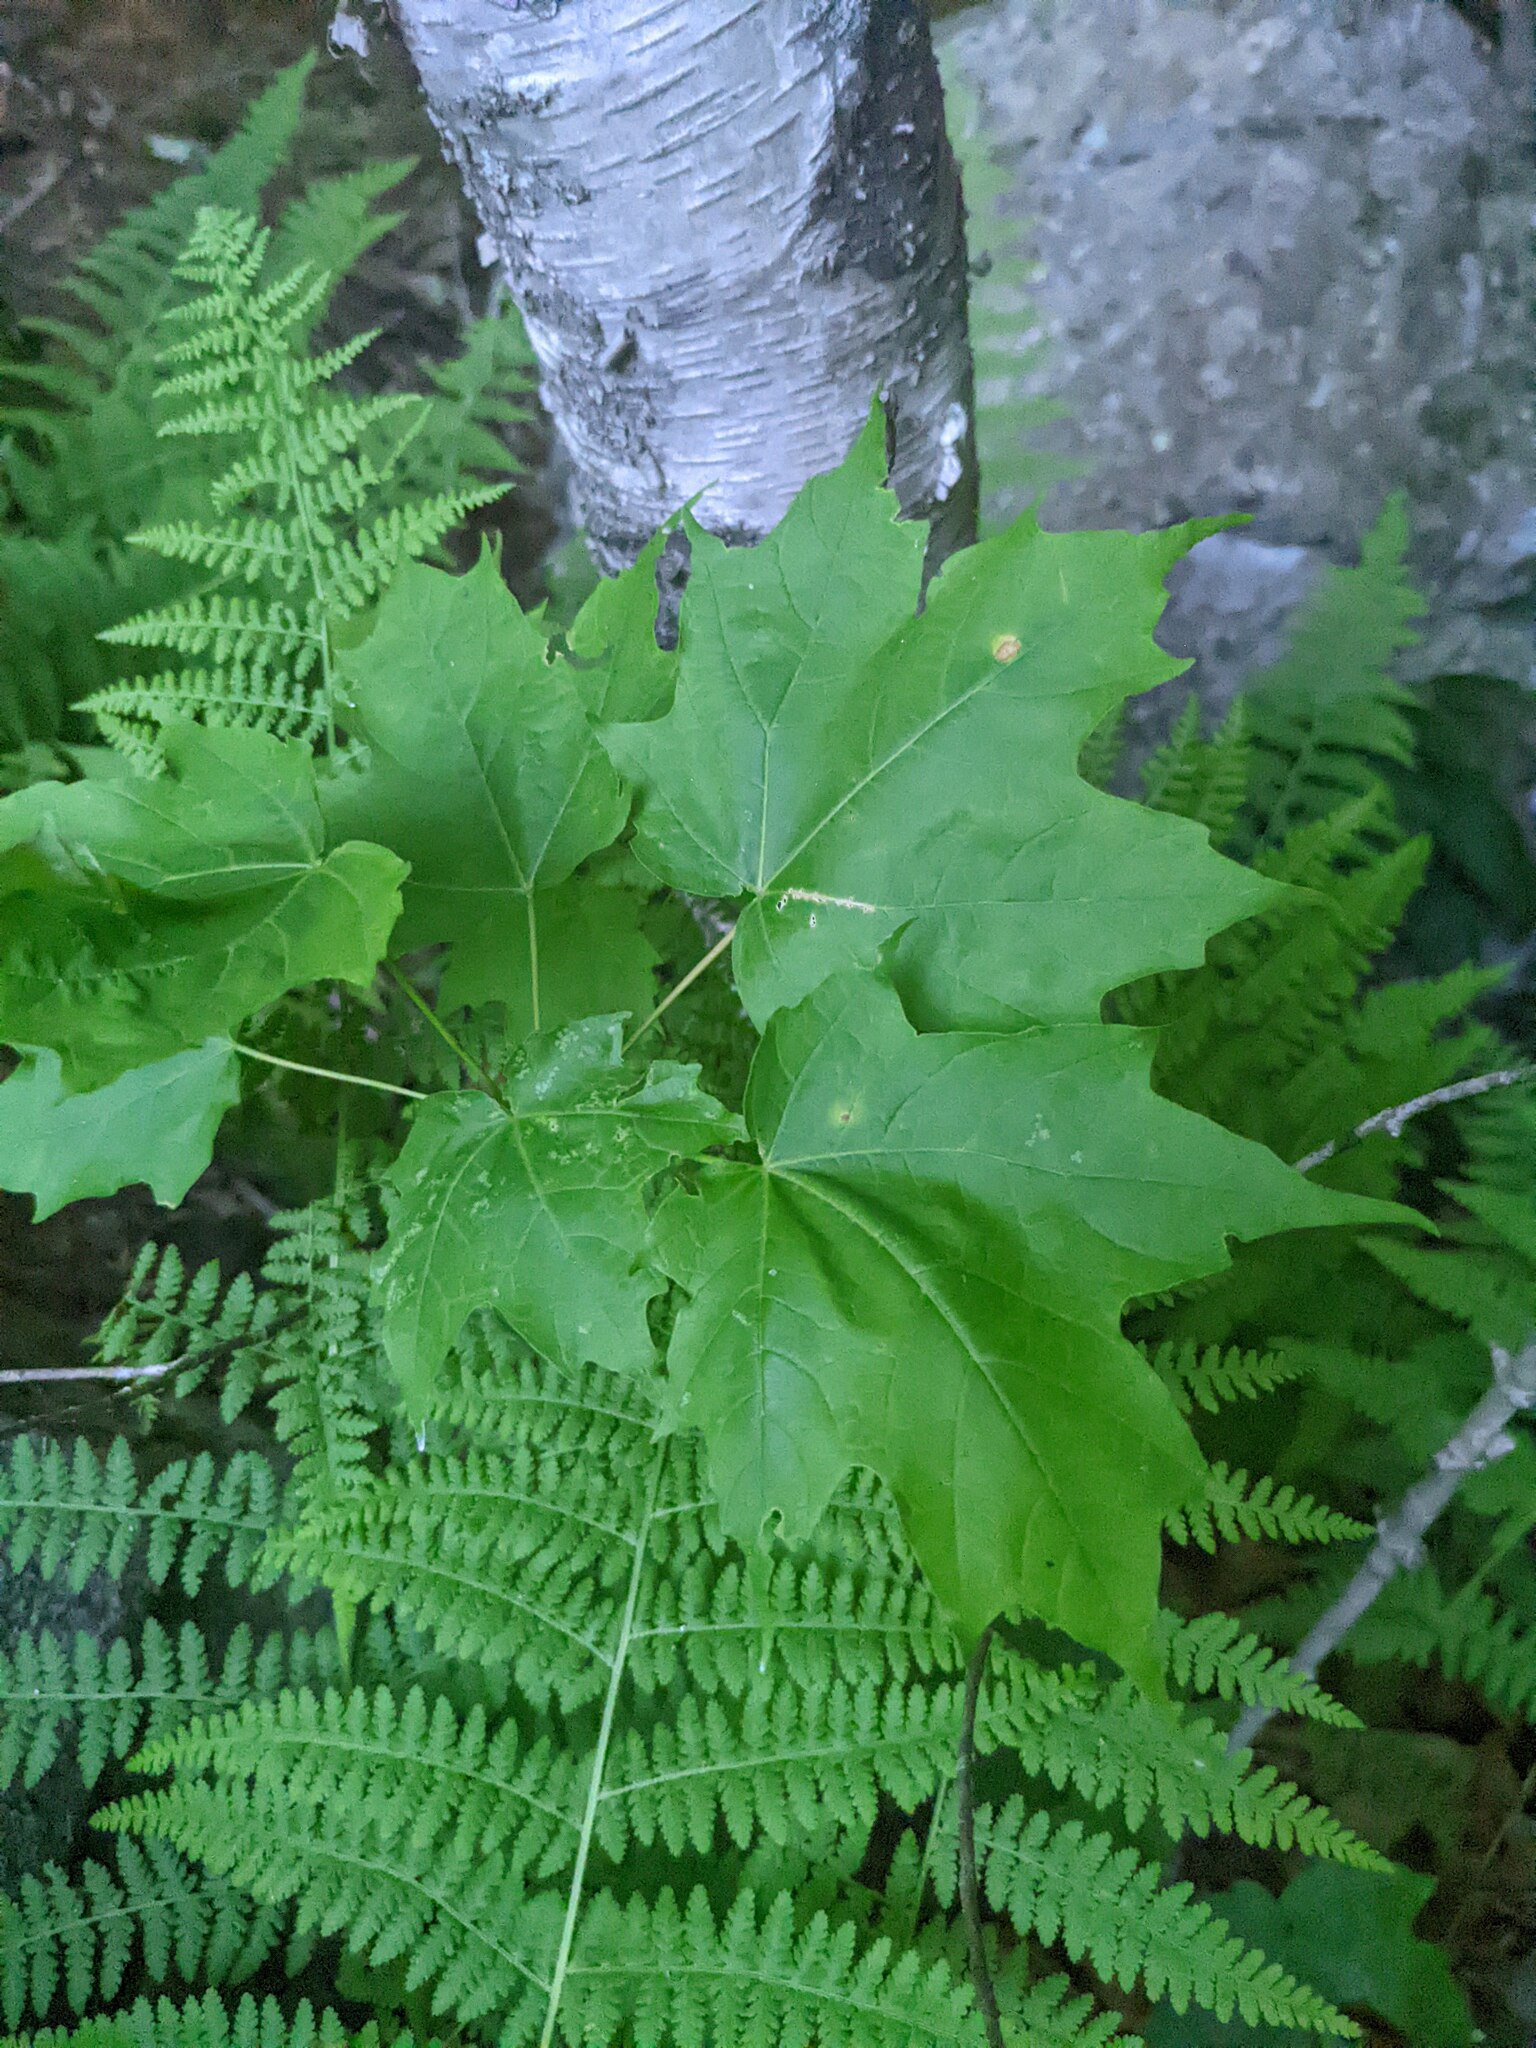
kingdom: Plantae
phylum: Tracheophyta
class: Magnoliopsida
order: Sapindales
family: Sapindaceae
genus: Acer
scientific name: Acer saccharum
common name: Sugar maple
